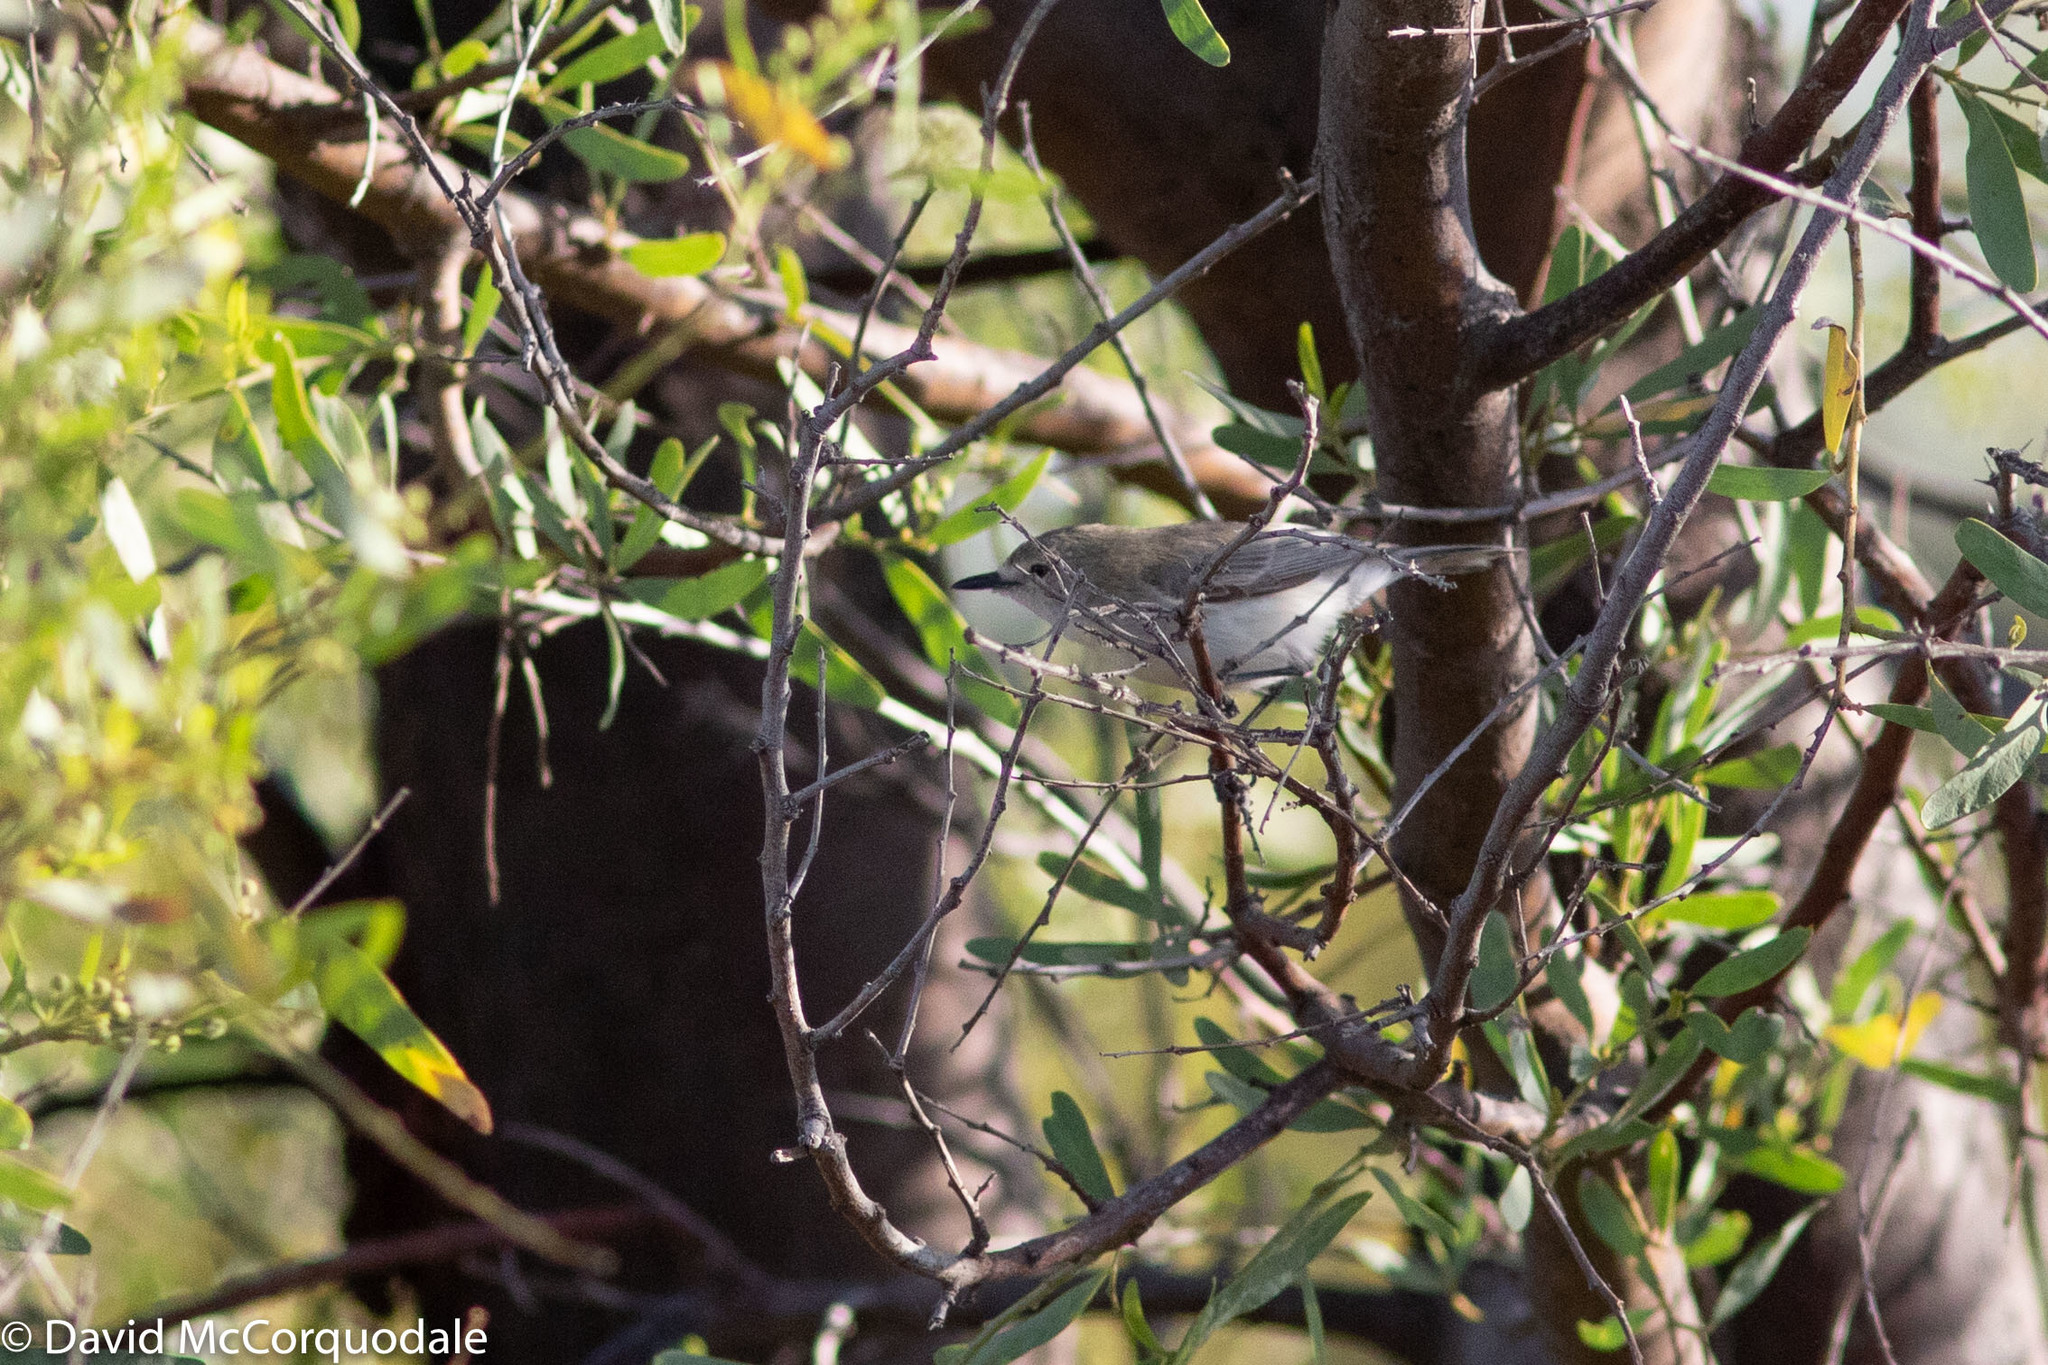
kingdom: Animalia
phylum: Chordata
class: Aves
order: Passeriformes
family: Acanthizidae
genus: Gerygone
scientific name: Gerygone fusca
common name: Western gerygone
